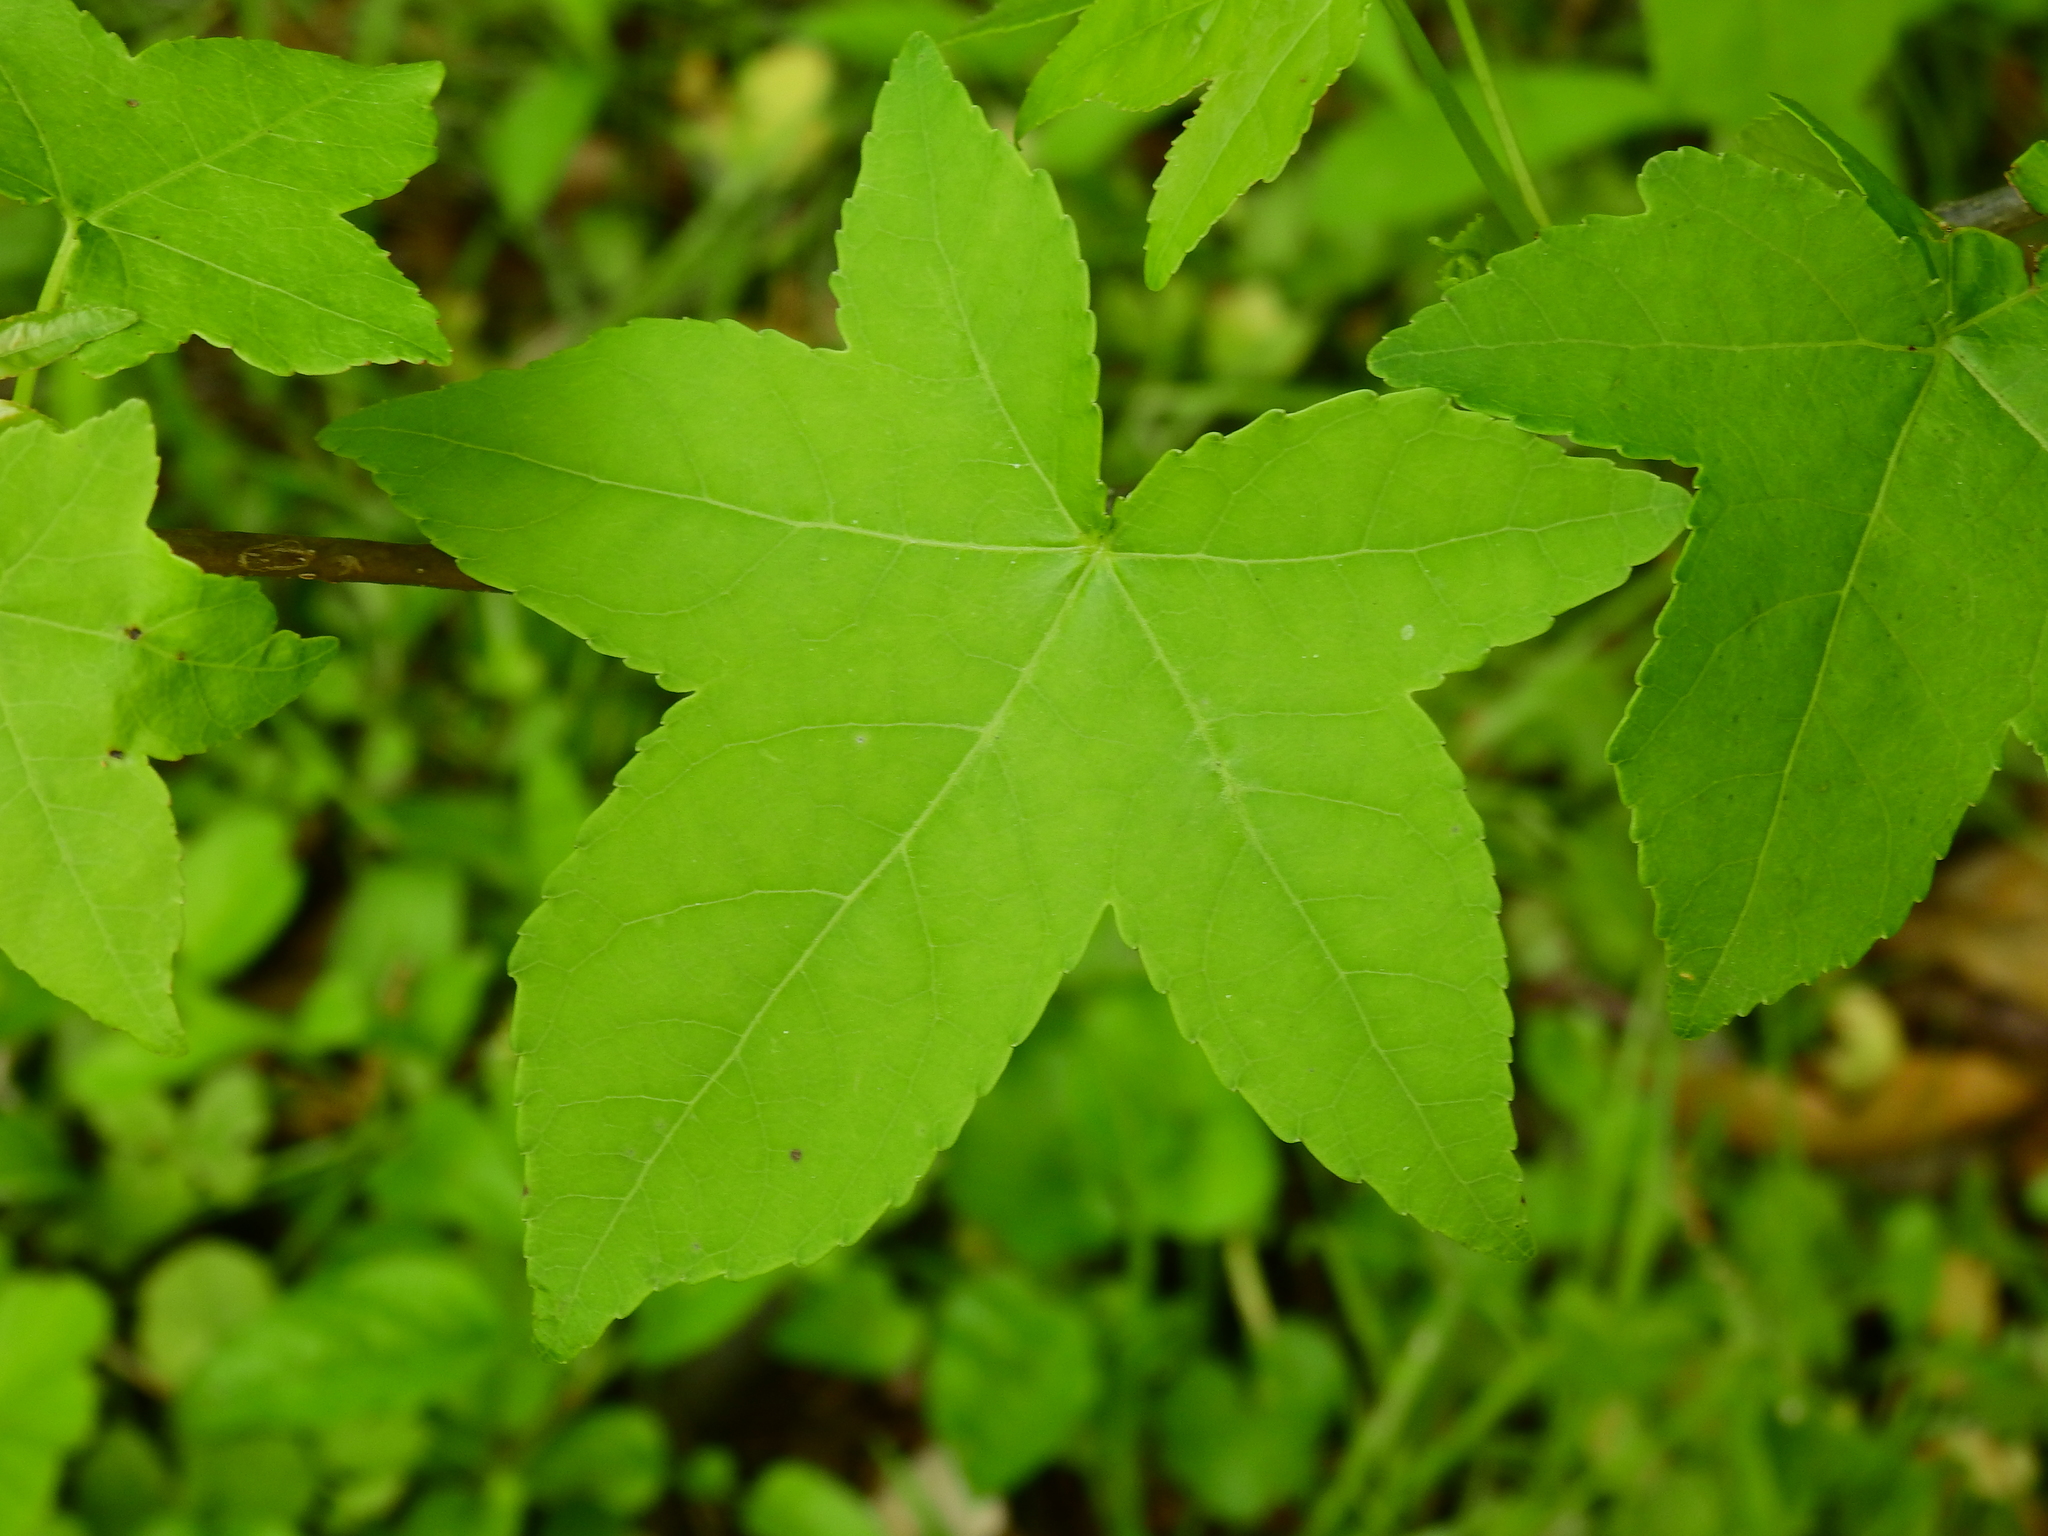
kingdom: Plantae
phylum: Tracheophyta
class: Magnoliopsida
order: Saxifragales
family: Altingiaceae
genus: Liquidambar
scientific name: Liquidambar styraciflua
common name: Sweet gum
